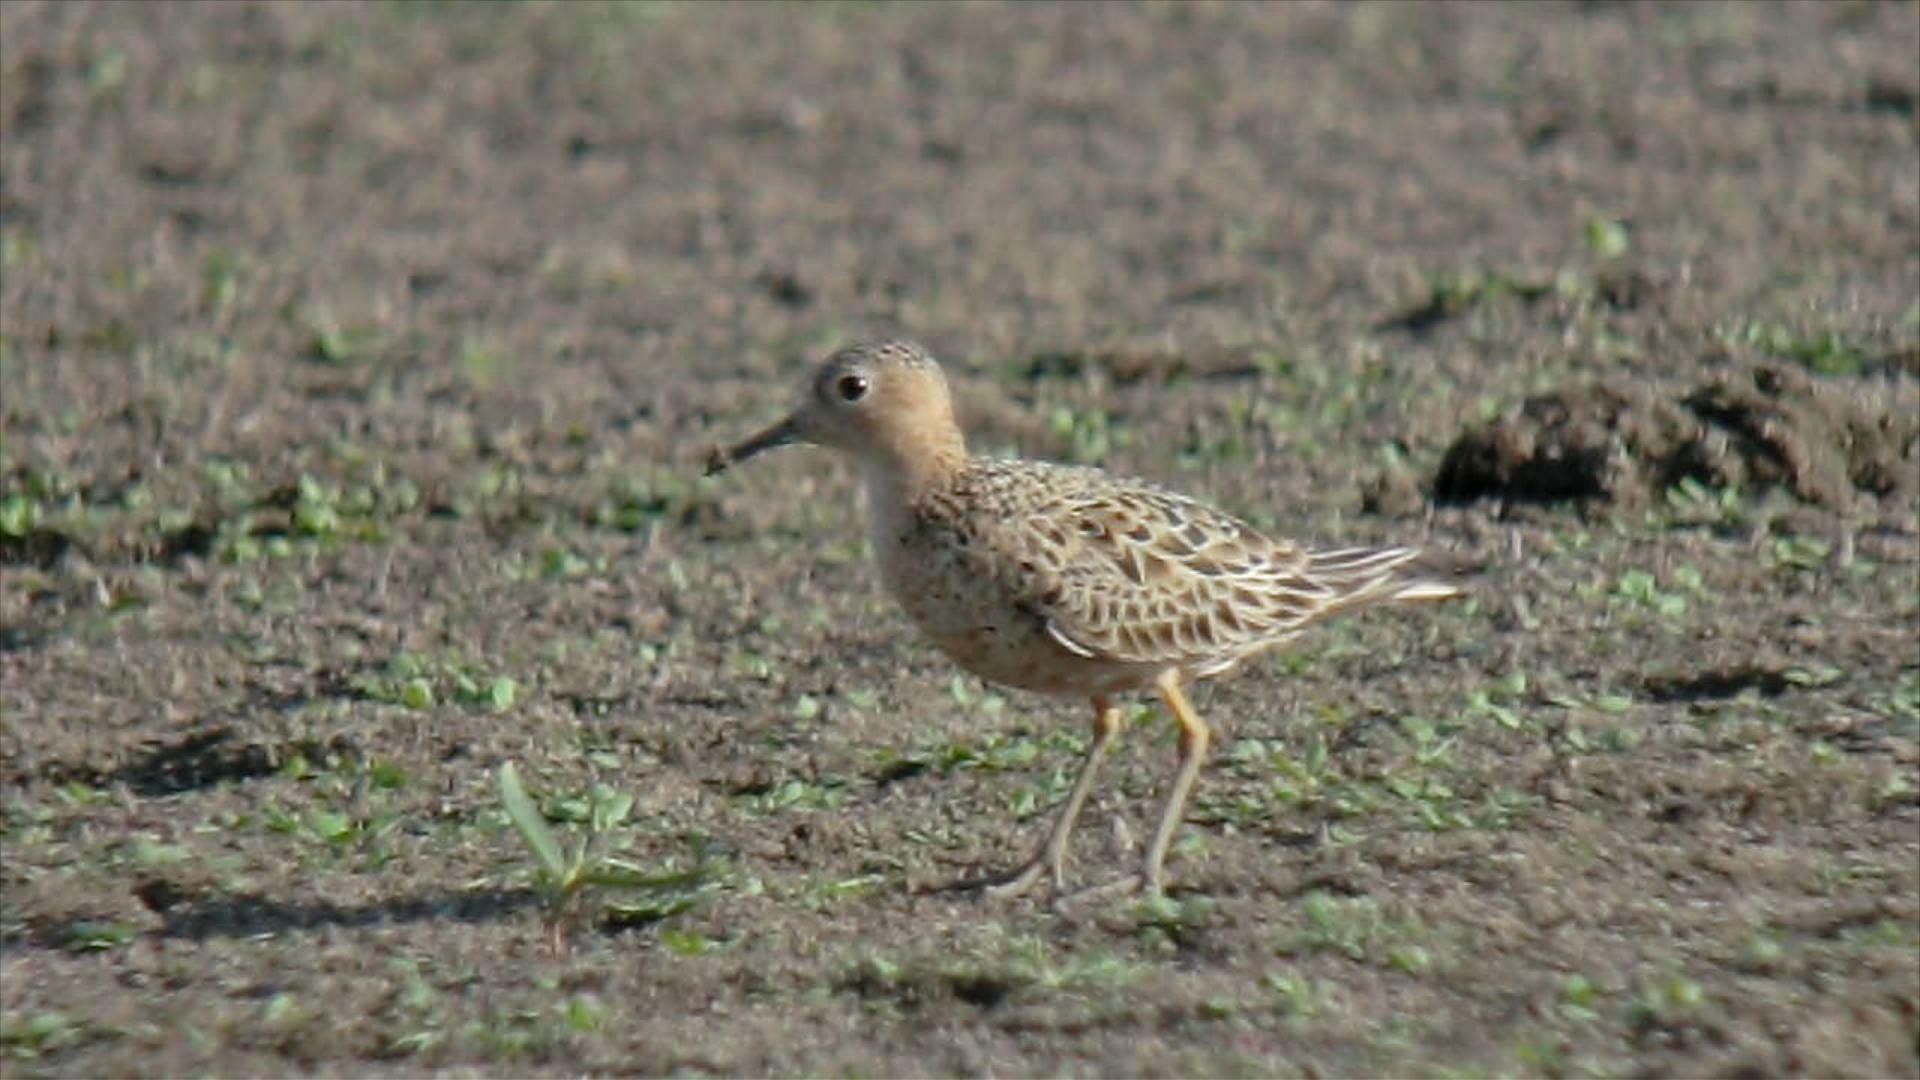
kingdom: Animalia
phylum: Chordata
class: Aves
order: Charadriiformes
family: Scolopacidae
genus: Calidris
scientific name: Calidris subruficollis
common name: Buff-breasted sandpiper
